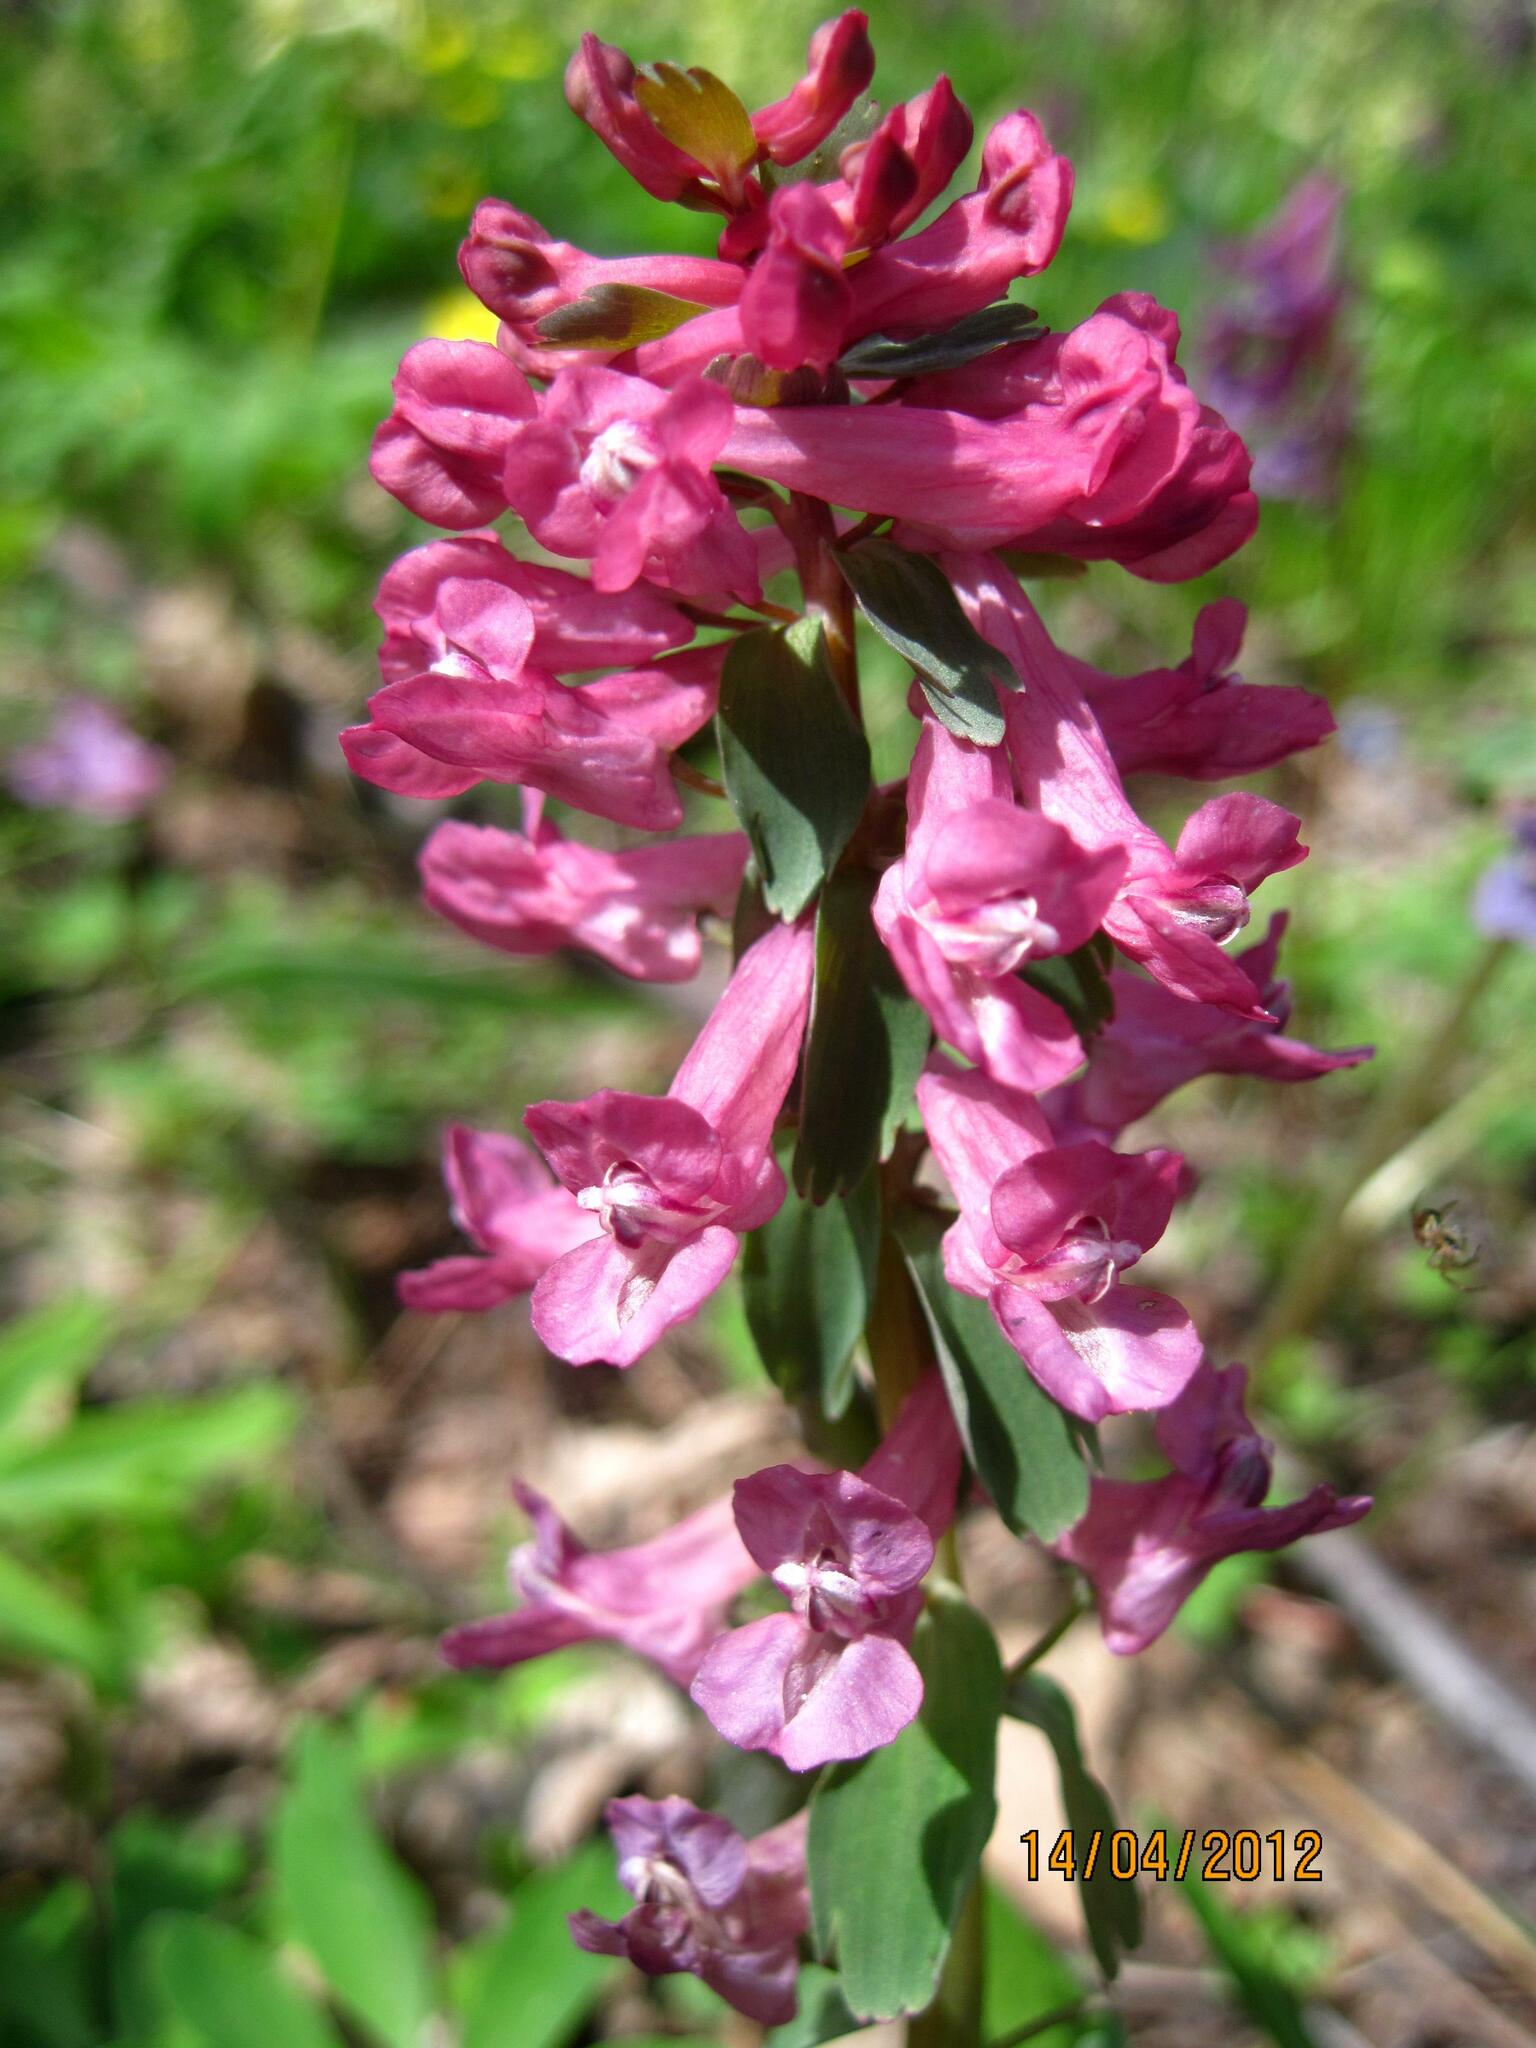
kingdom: Plantae
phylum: Tracheophyta
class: Magnoliopsida
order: Ranunculales
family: Papaveraceae
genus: Corydalis
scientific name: Corydalis solida
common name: Bird-in-a-bush
